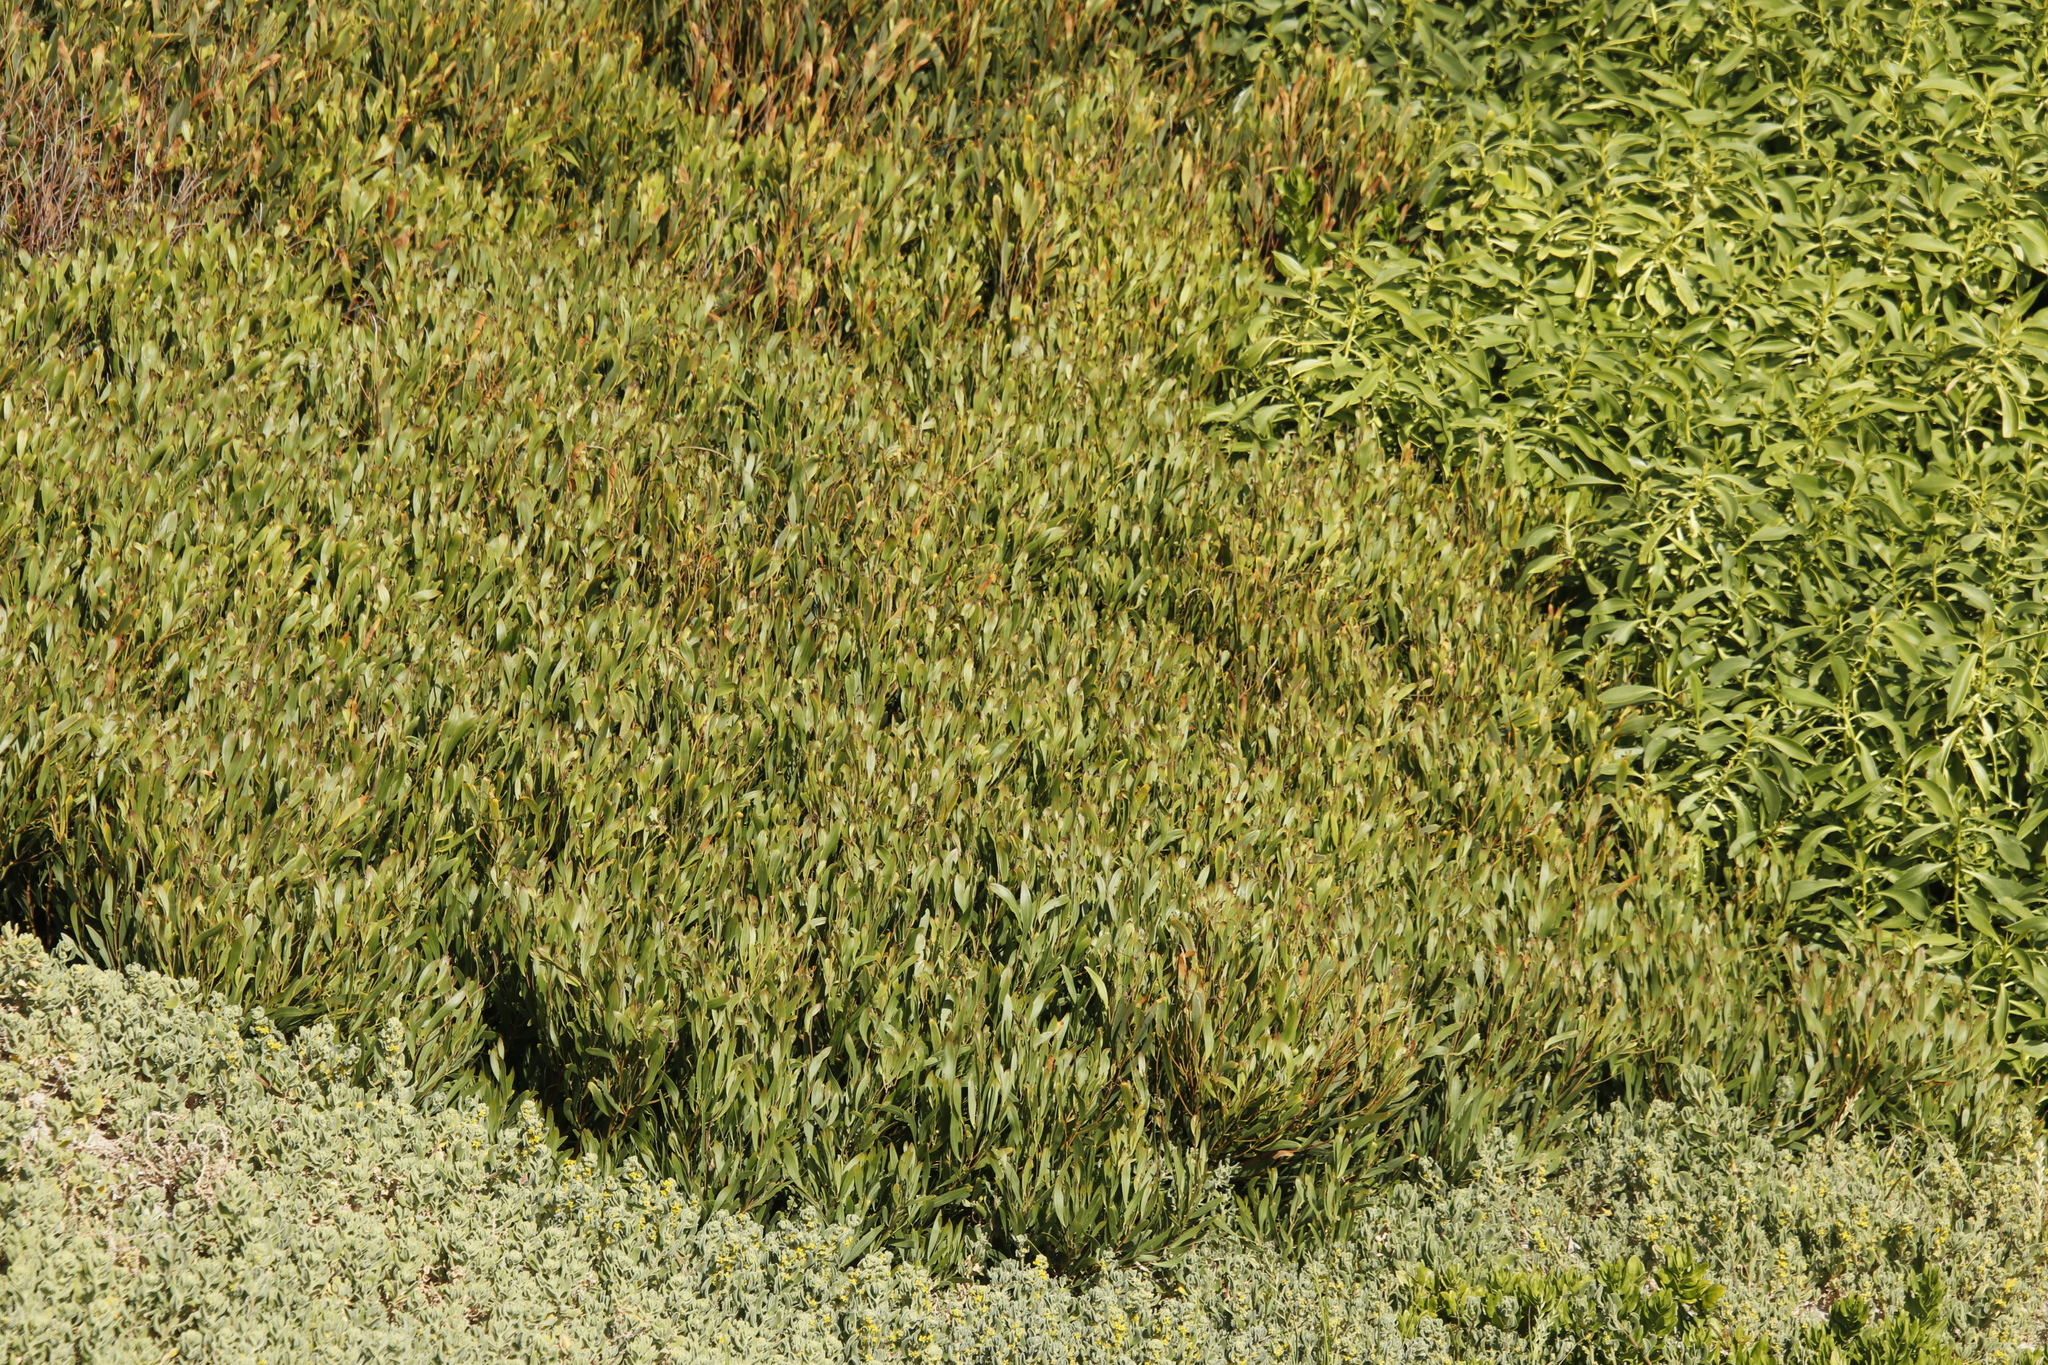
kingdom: Plantae
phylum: Tracheophyta
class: Magnoliopsida
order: Fabales
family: Fabaceae
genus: Acacia
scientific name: Acacia cyclops
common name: Coastal wattle
